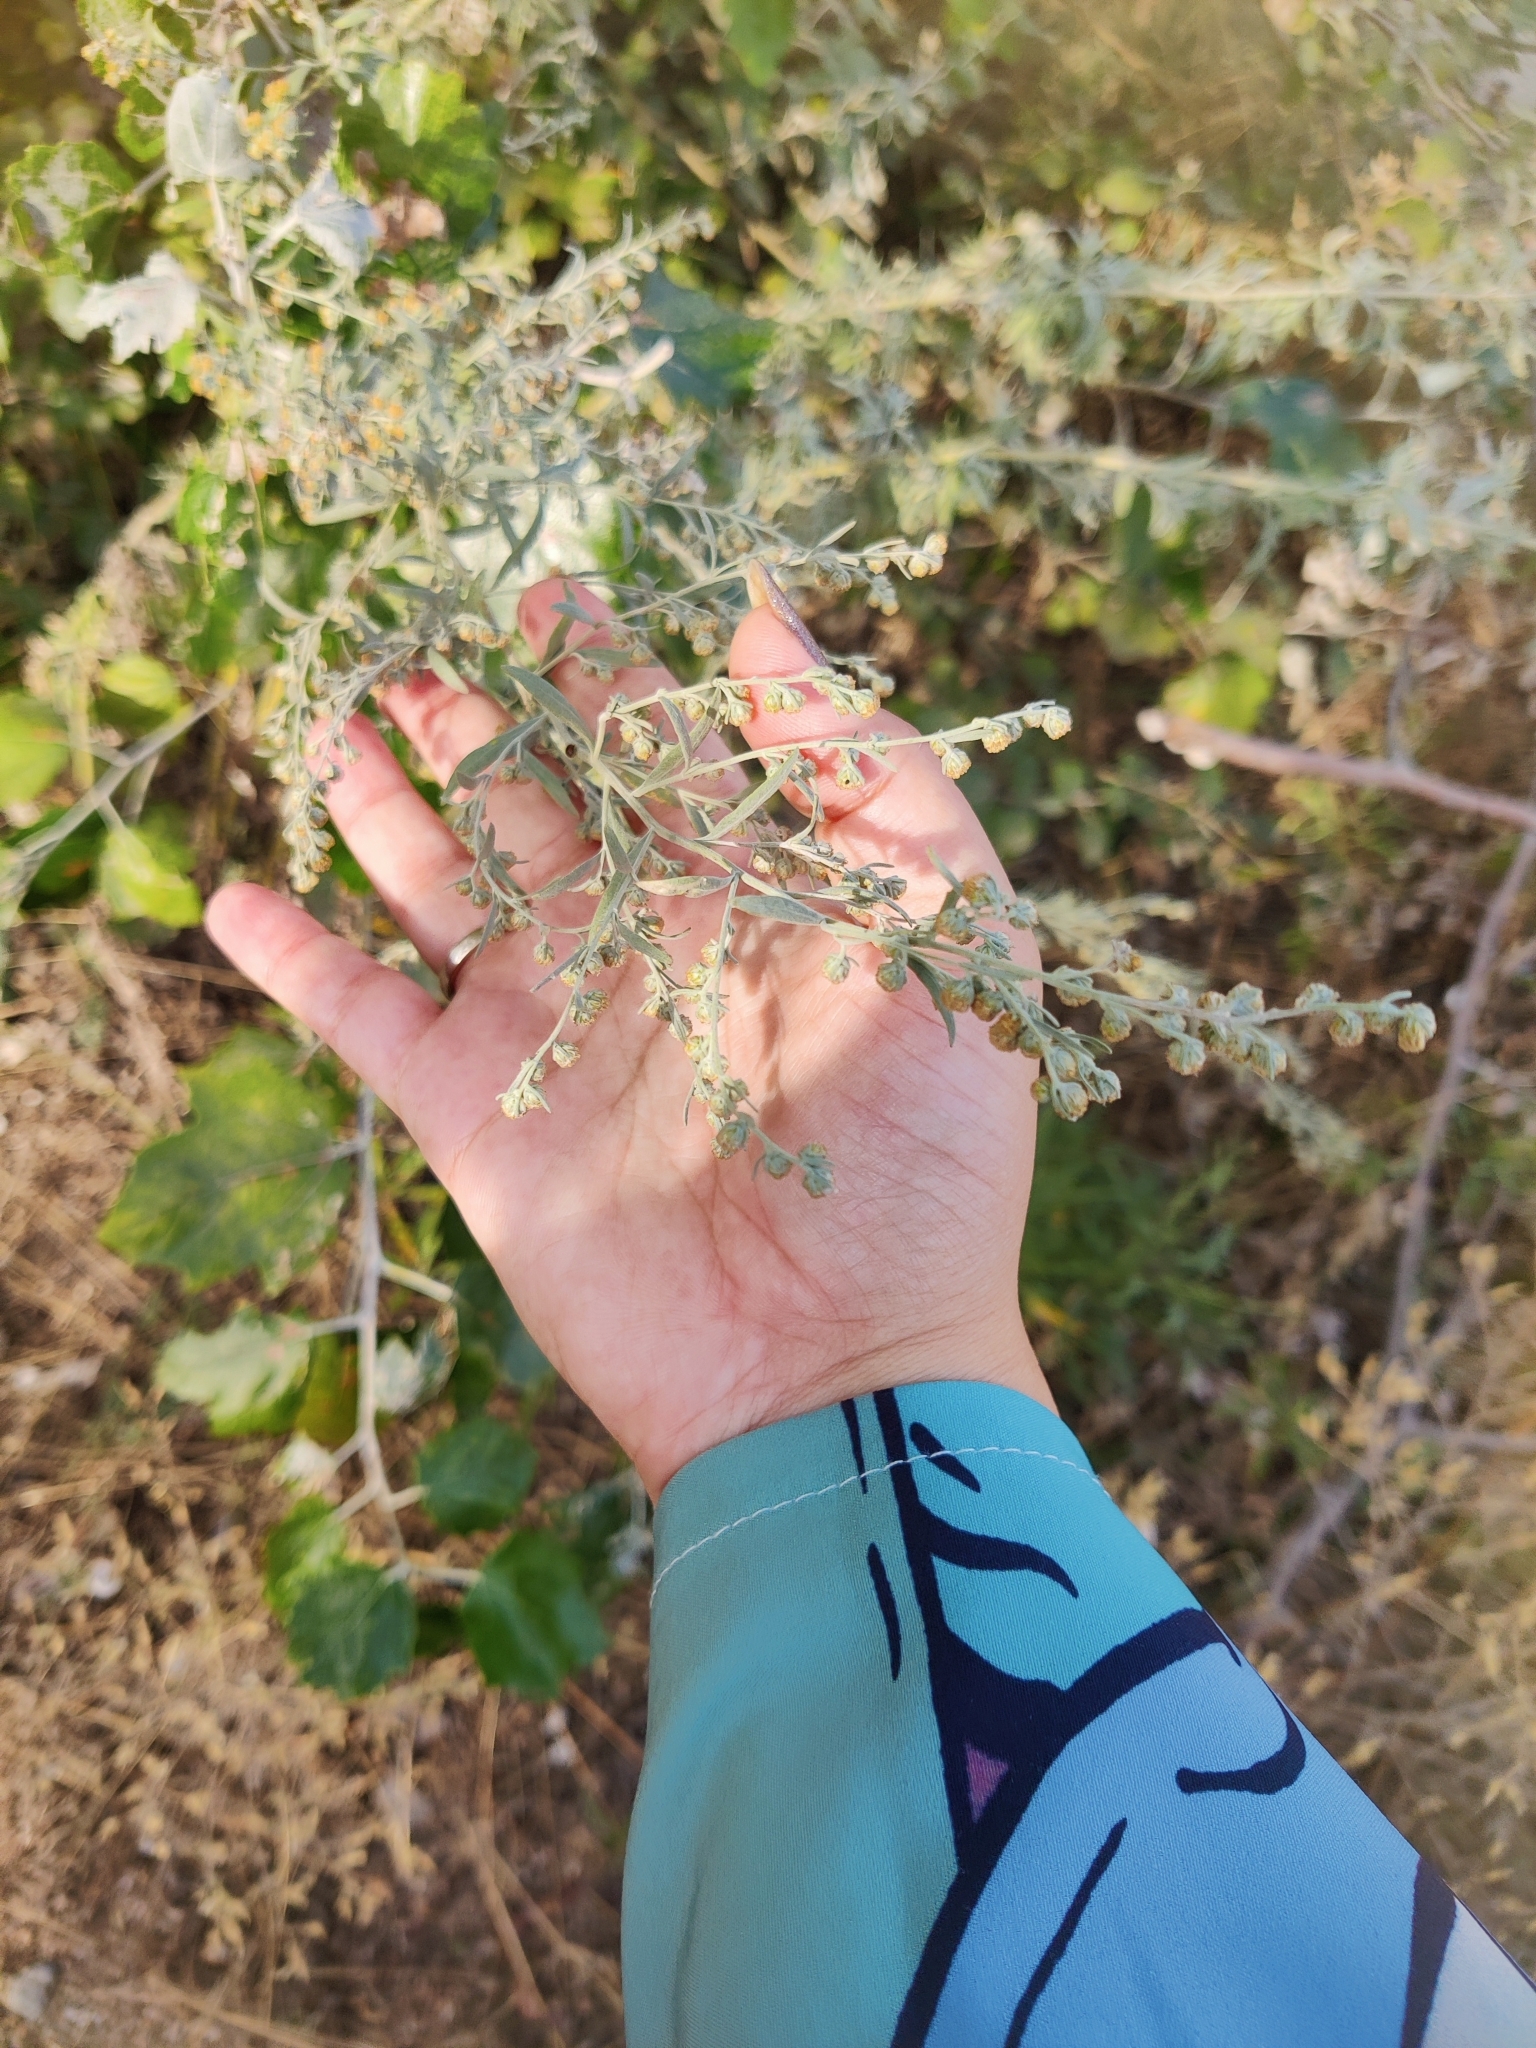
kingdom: Plantae
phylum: Tracheophyta
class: Magnoliopsida
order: Asterales
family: Asteraceae
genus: Artemisia
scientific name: Artemisia absinthium
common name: Wormwood
